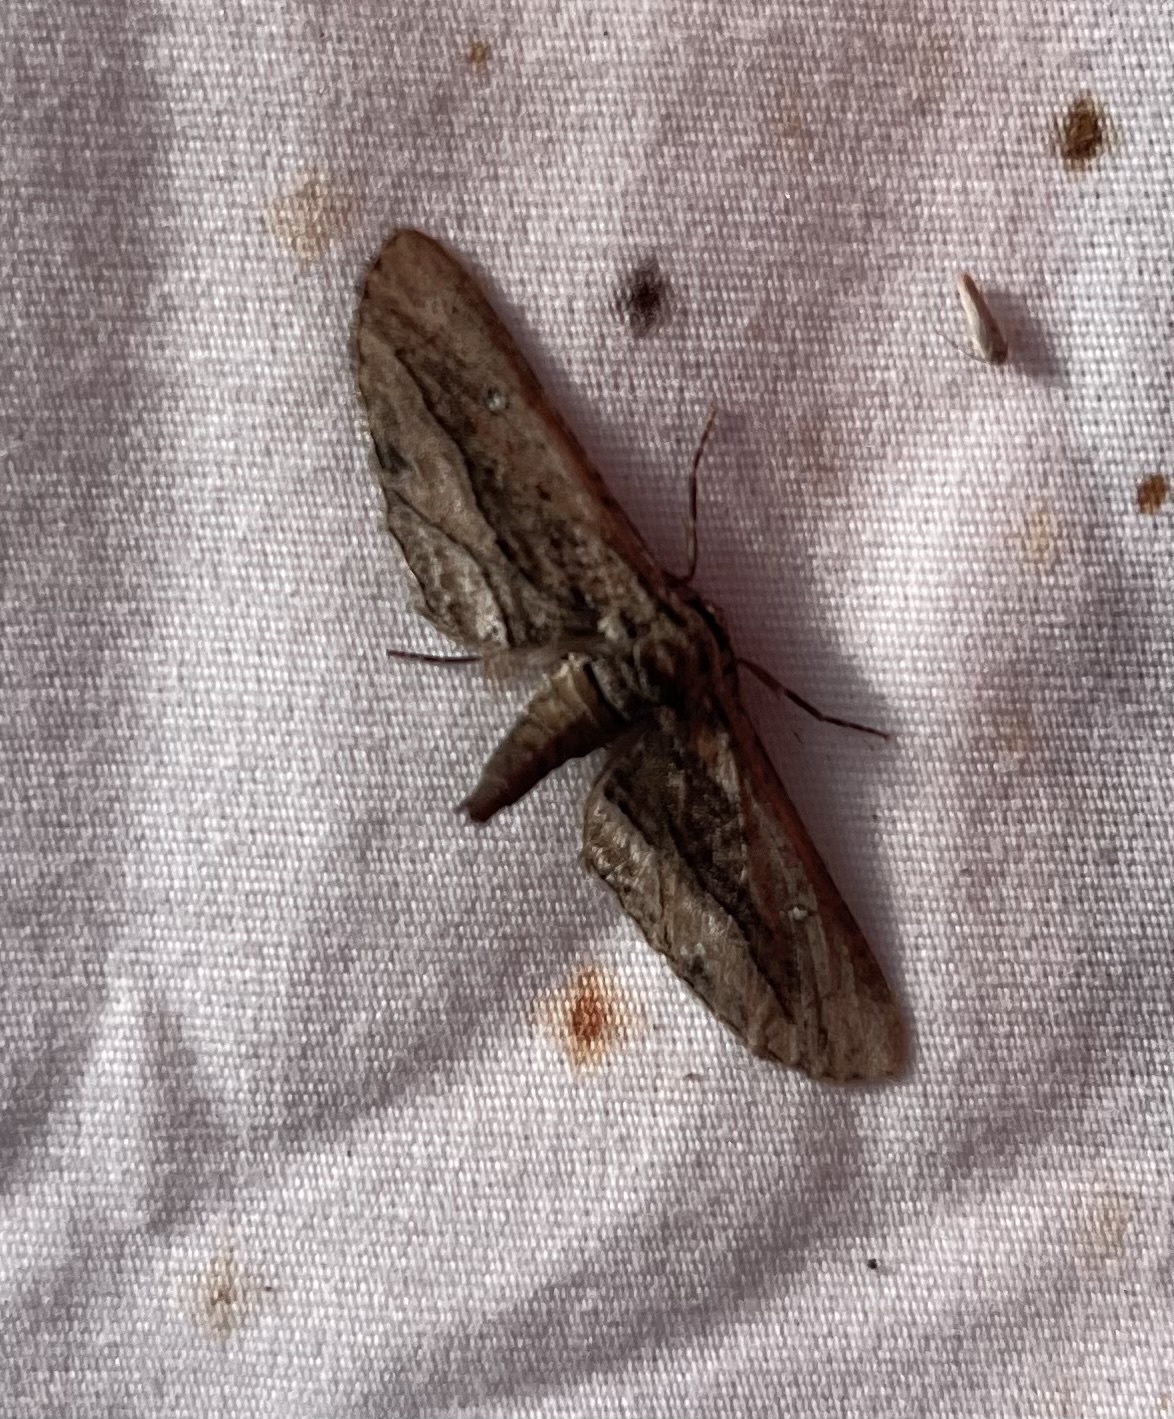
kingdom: Animalia
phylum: Arthropoda
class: Insecta
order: Lepidoptera
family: Geometridae
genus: Holochroa
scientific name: Holochroa dissociarius
